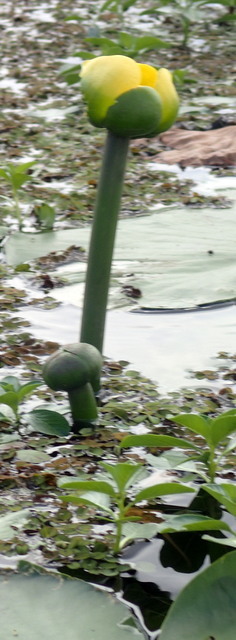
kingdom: Plantae
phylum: Tracheophyta
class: Magnoliopsida
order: Nymphaeales
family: Nymphaeaceae
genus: Nuphar
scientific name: Nuphar advena
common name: Spatter-dock
